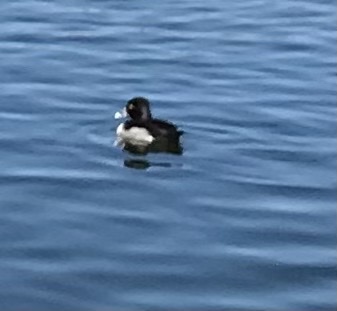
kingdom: Animalia
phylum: Chordata
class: Aves
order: Anseriformes
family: Anatidae
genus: Aythya
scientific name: Aythya collaris
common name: Ring-necked duck
